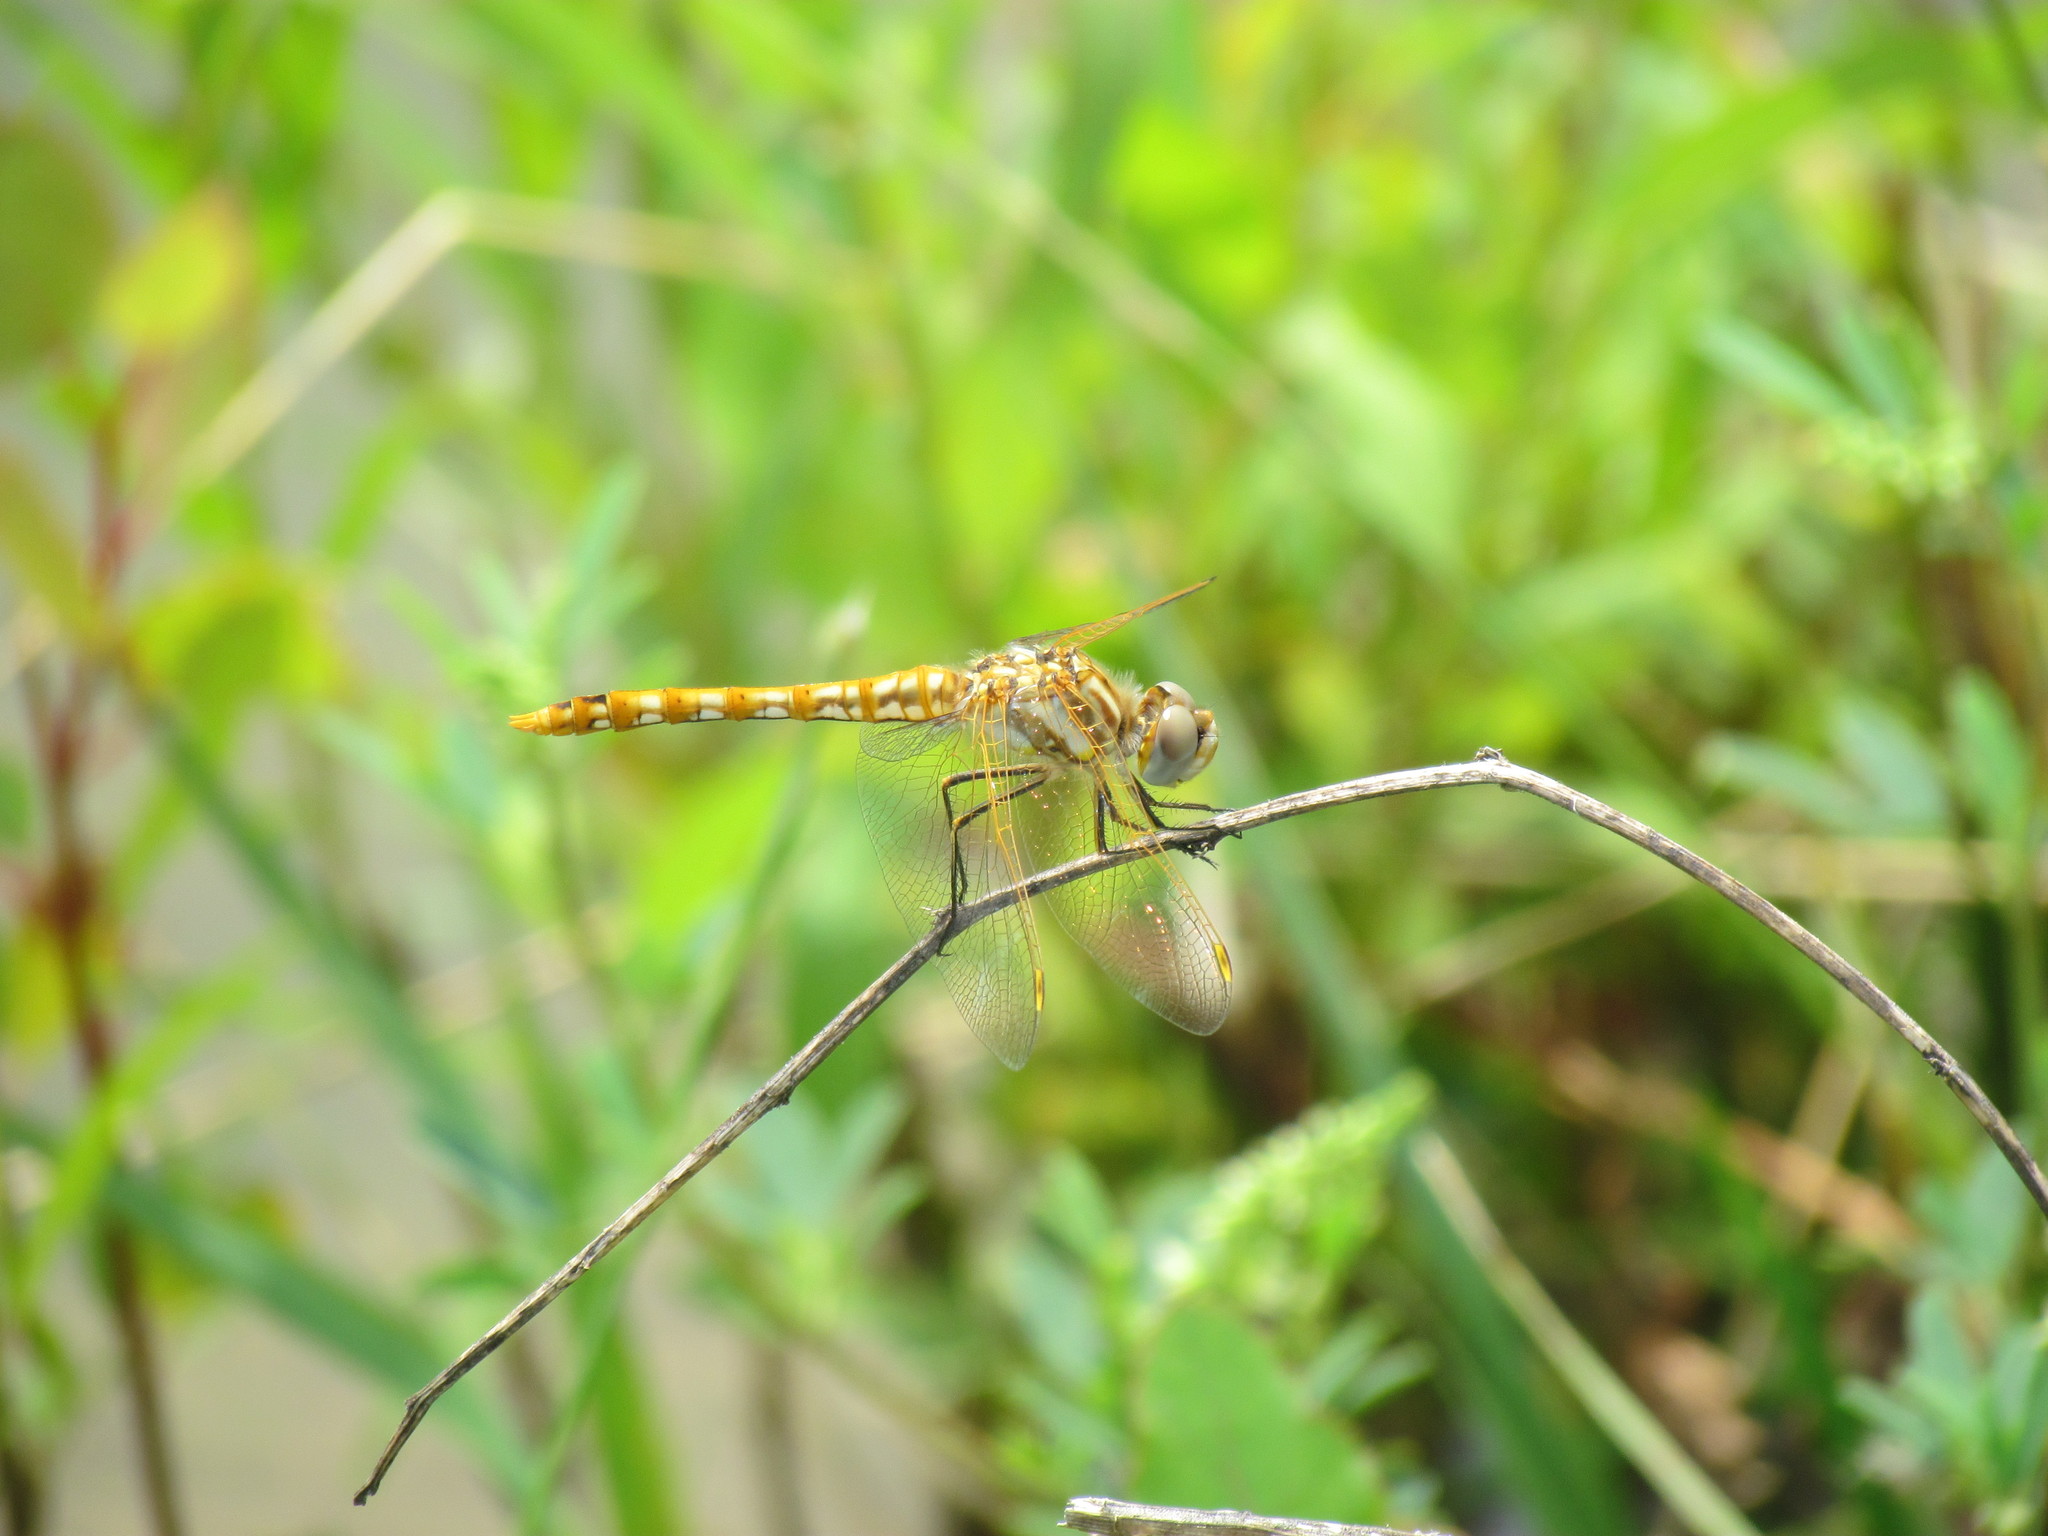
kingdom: Animalia
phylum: Arthropoda
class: Insecta
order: Odonata
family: Libellulidae
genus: Sympetrum
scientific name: Sympetrum corruptum
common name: Variegated meadowhawk
